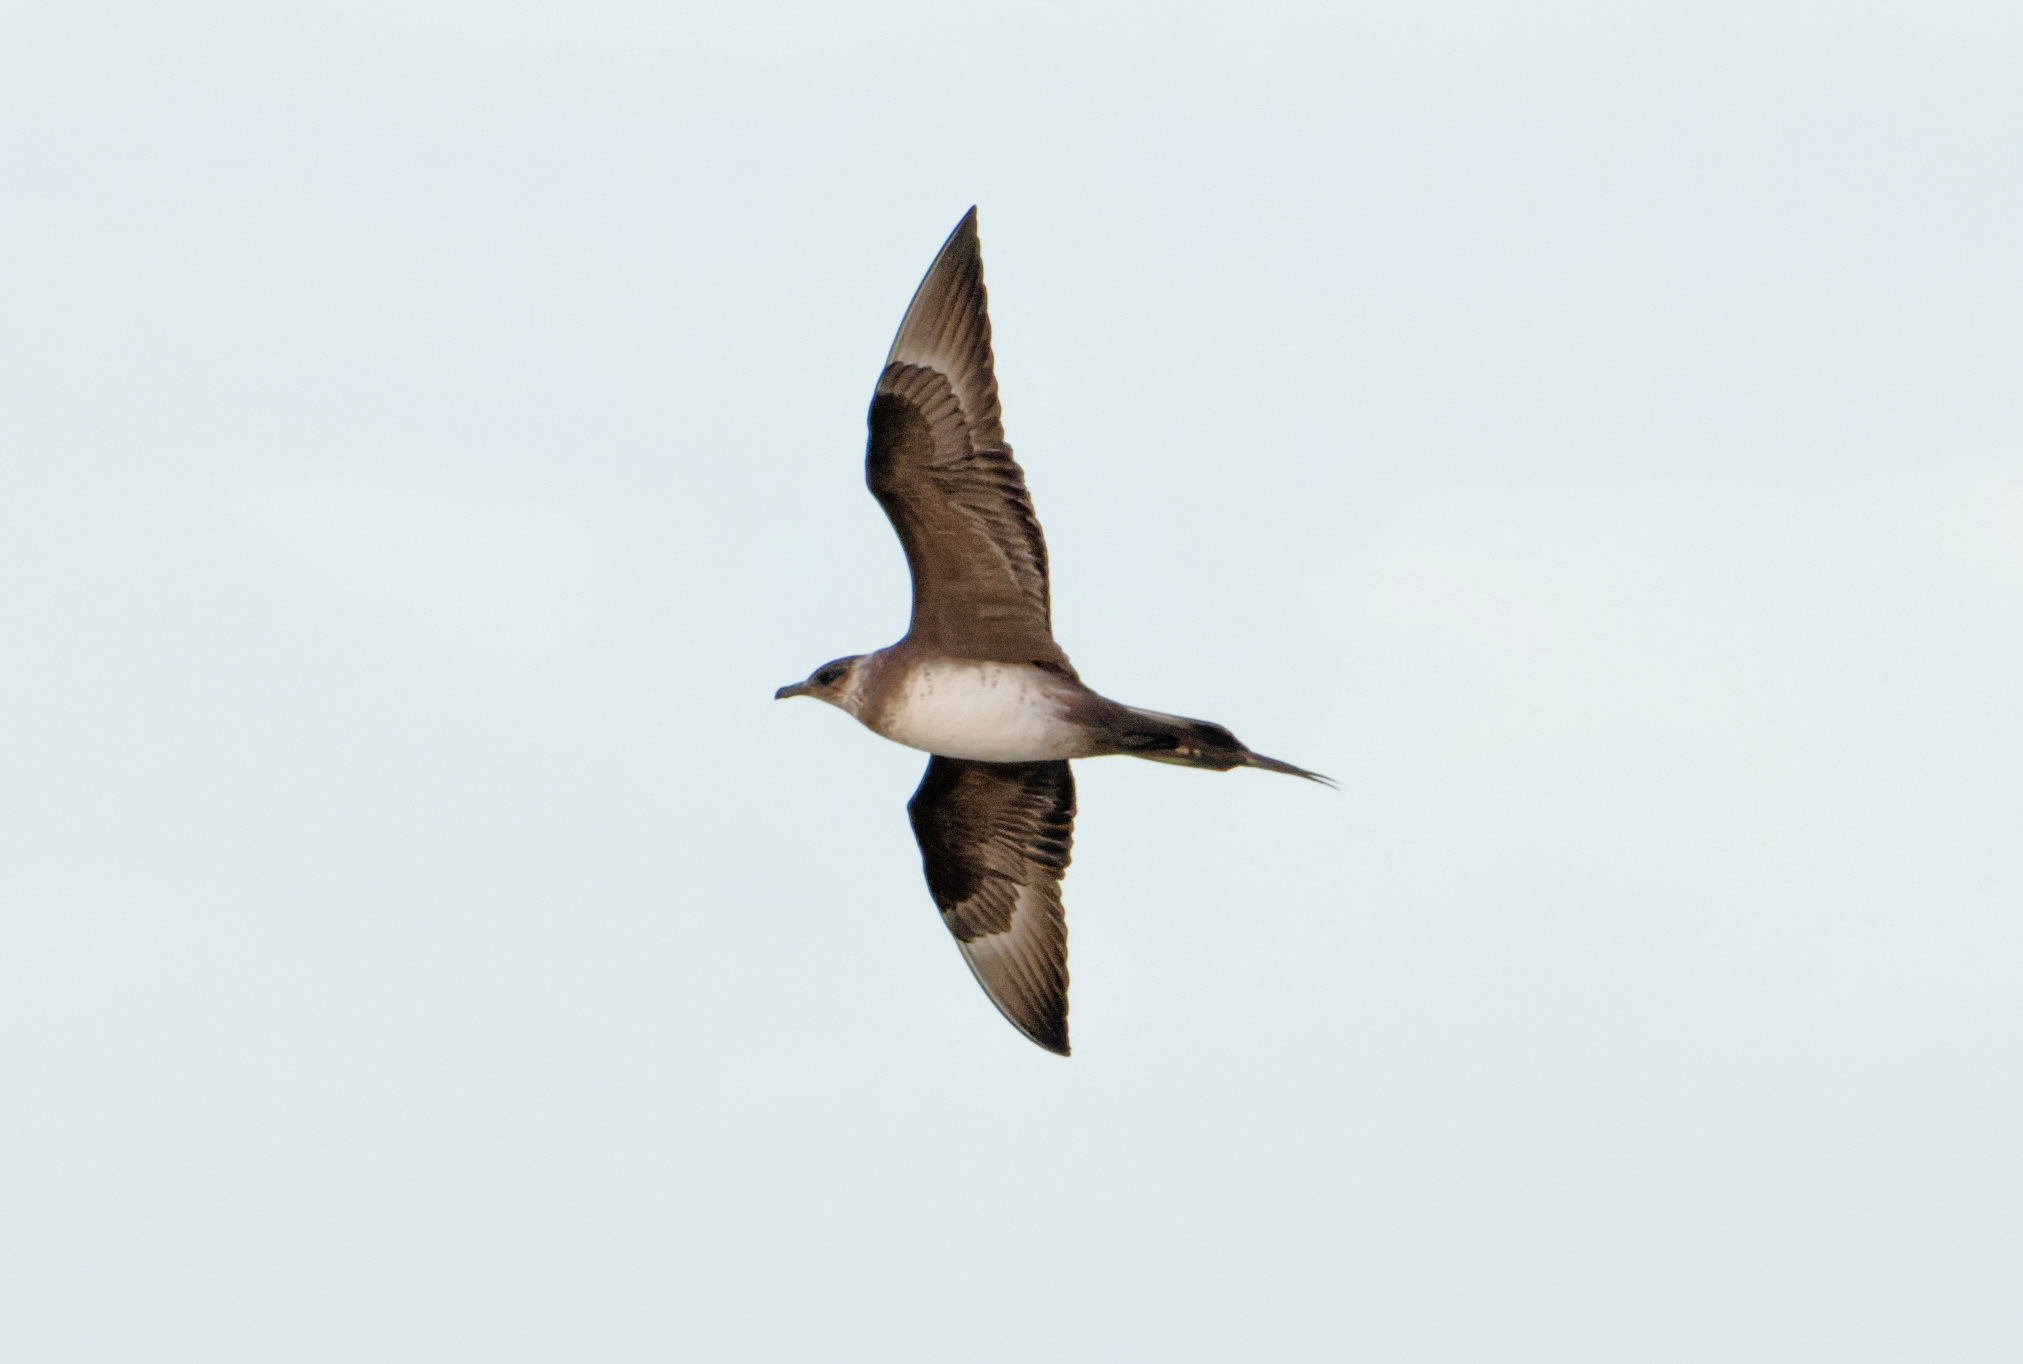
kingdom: Animalia
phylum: Chordata
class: Aves
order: Charadriiformes
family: Stercorariidae
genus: Stercorarius
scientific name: Stercorarius parasiticus
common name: Parasitic jaeger
